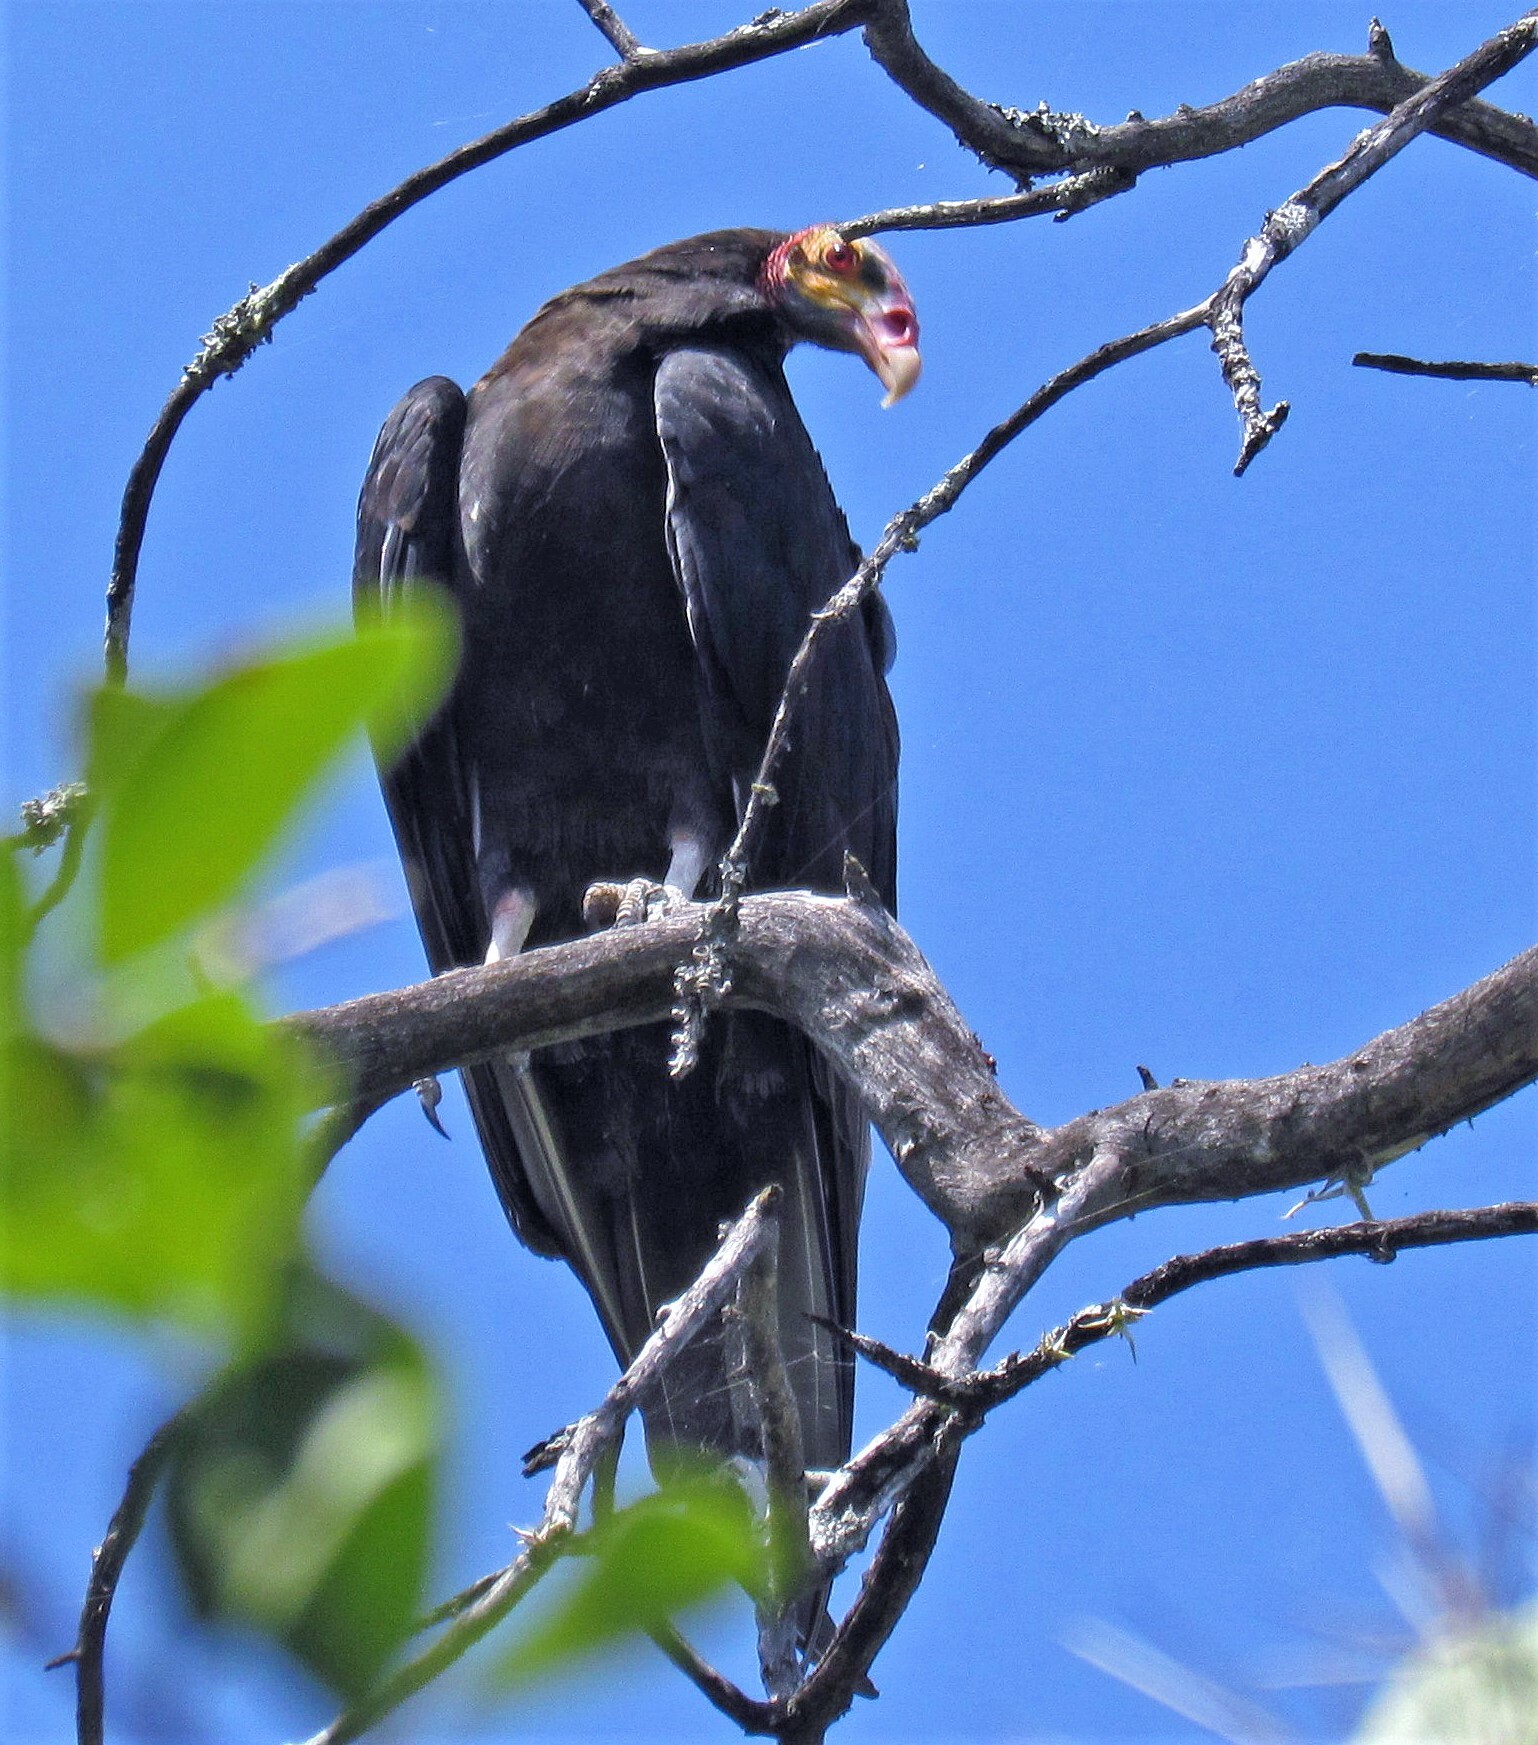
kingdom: Animalia
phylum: Chordata
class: Aves
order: Accipitriformes
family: Cathartidae
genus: Cathartes
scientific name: Cathartes burrovianus
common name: Lesser yellow-headed vulture
